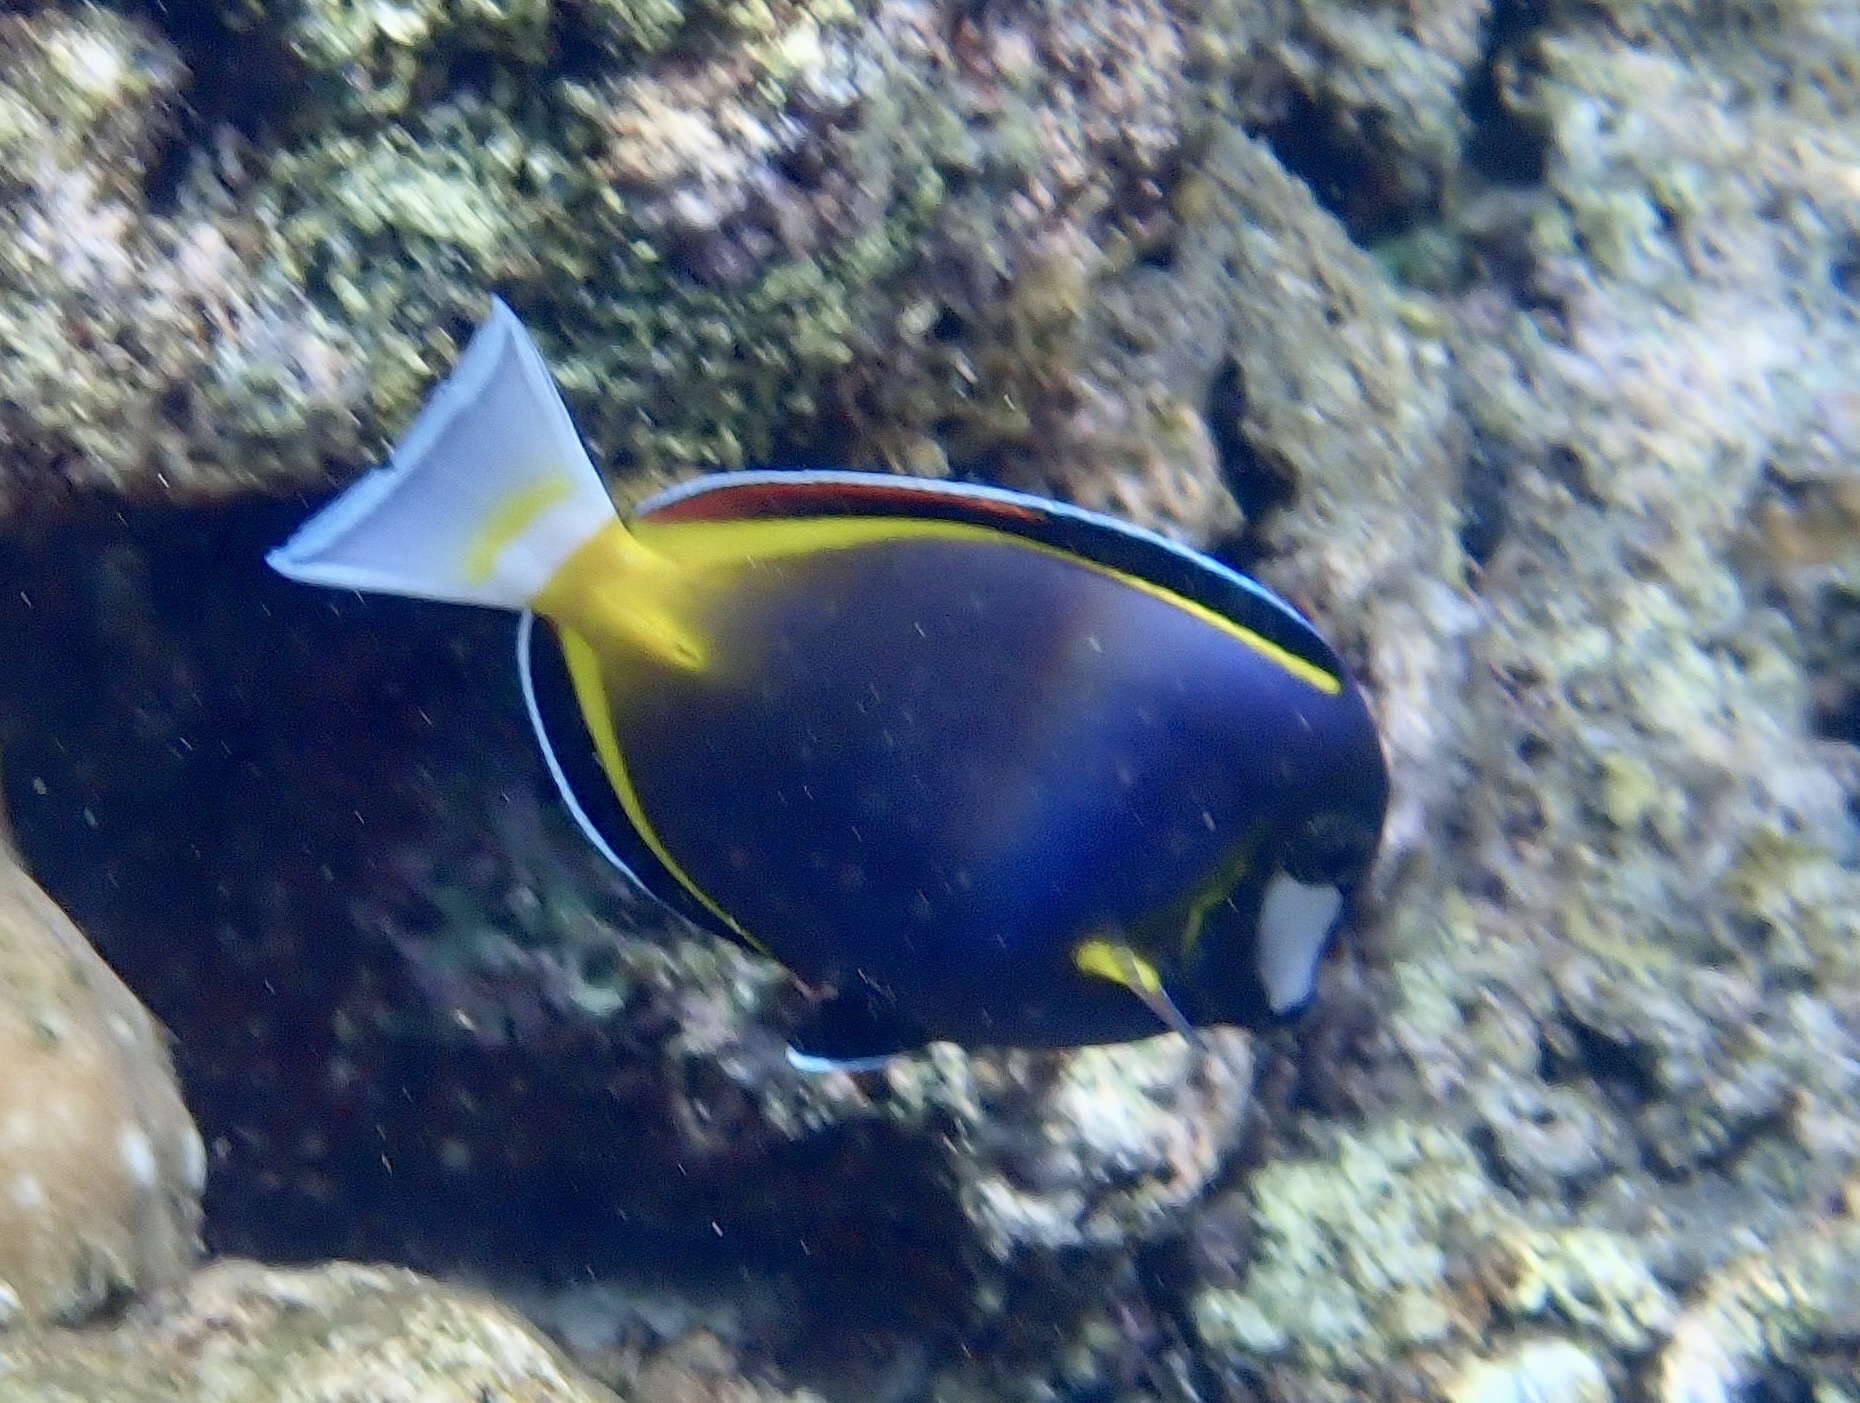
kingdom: Animalia
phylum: Chordata
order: Perciformes
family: Acanthuridae
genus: Acanthurus
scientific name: Acanthurus japonicus
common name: Japanese surgeonfish
